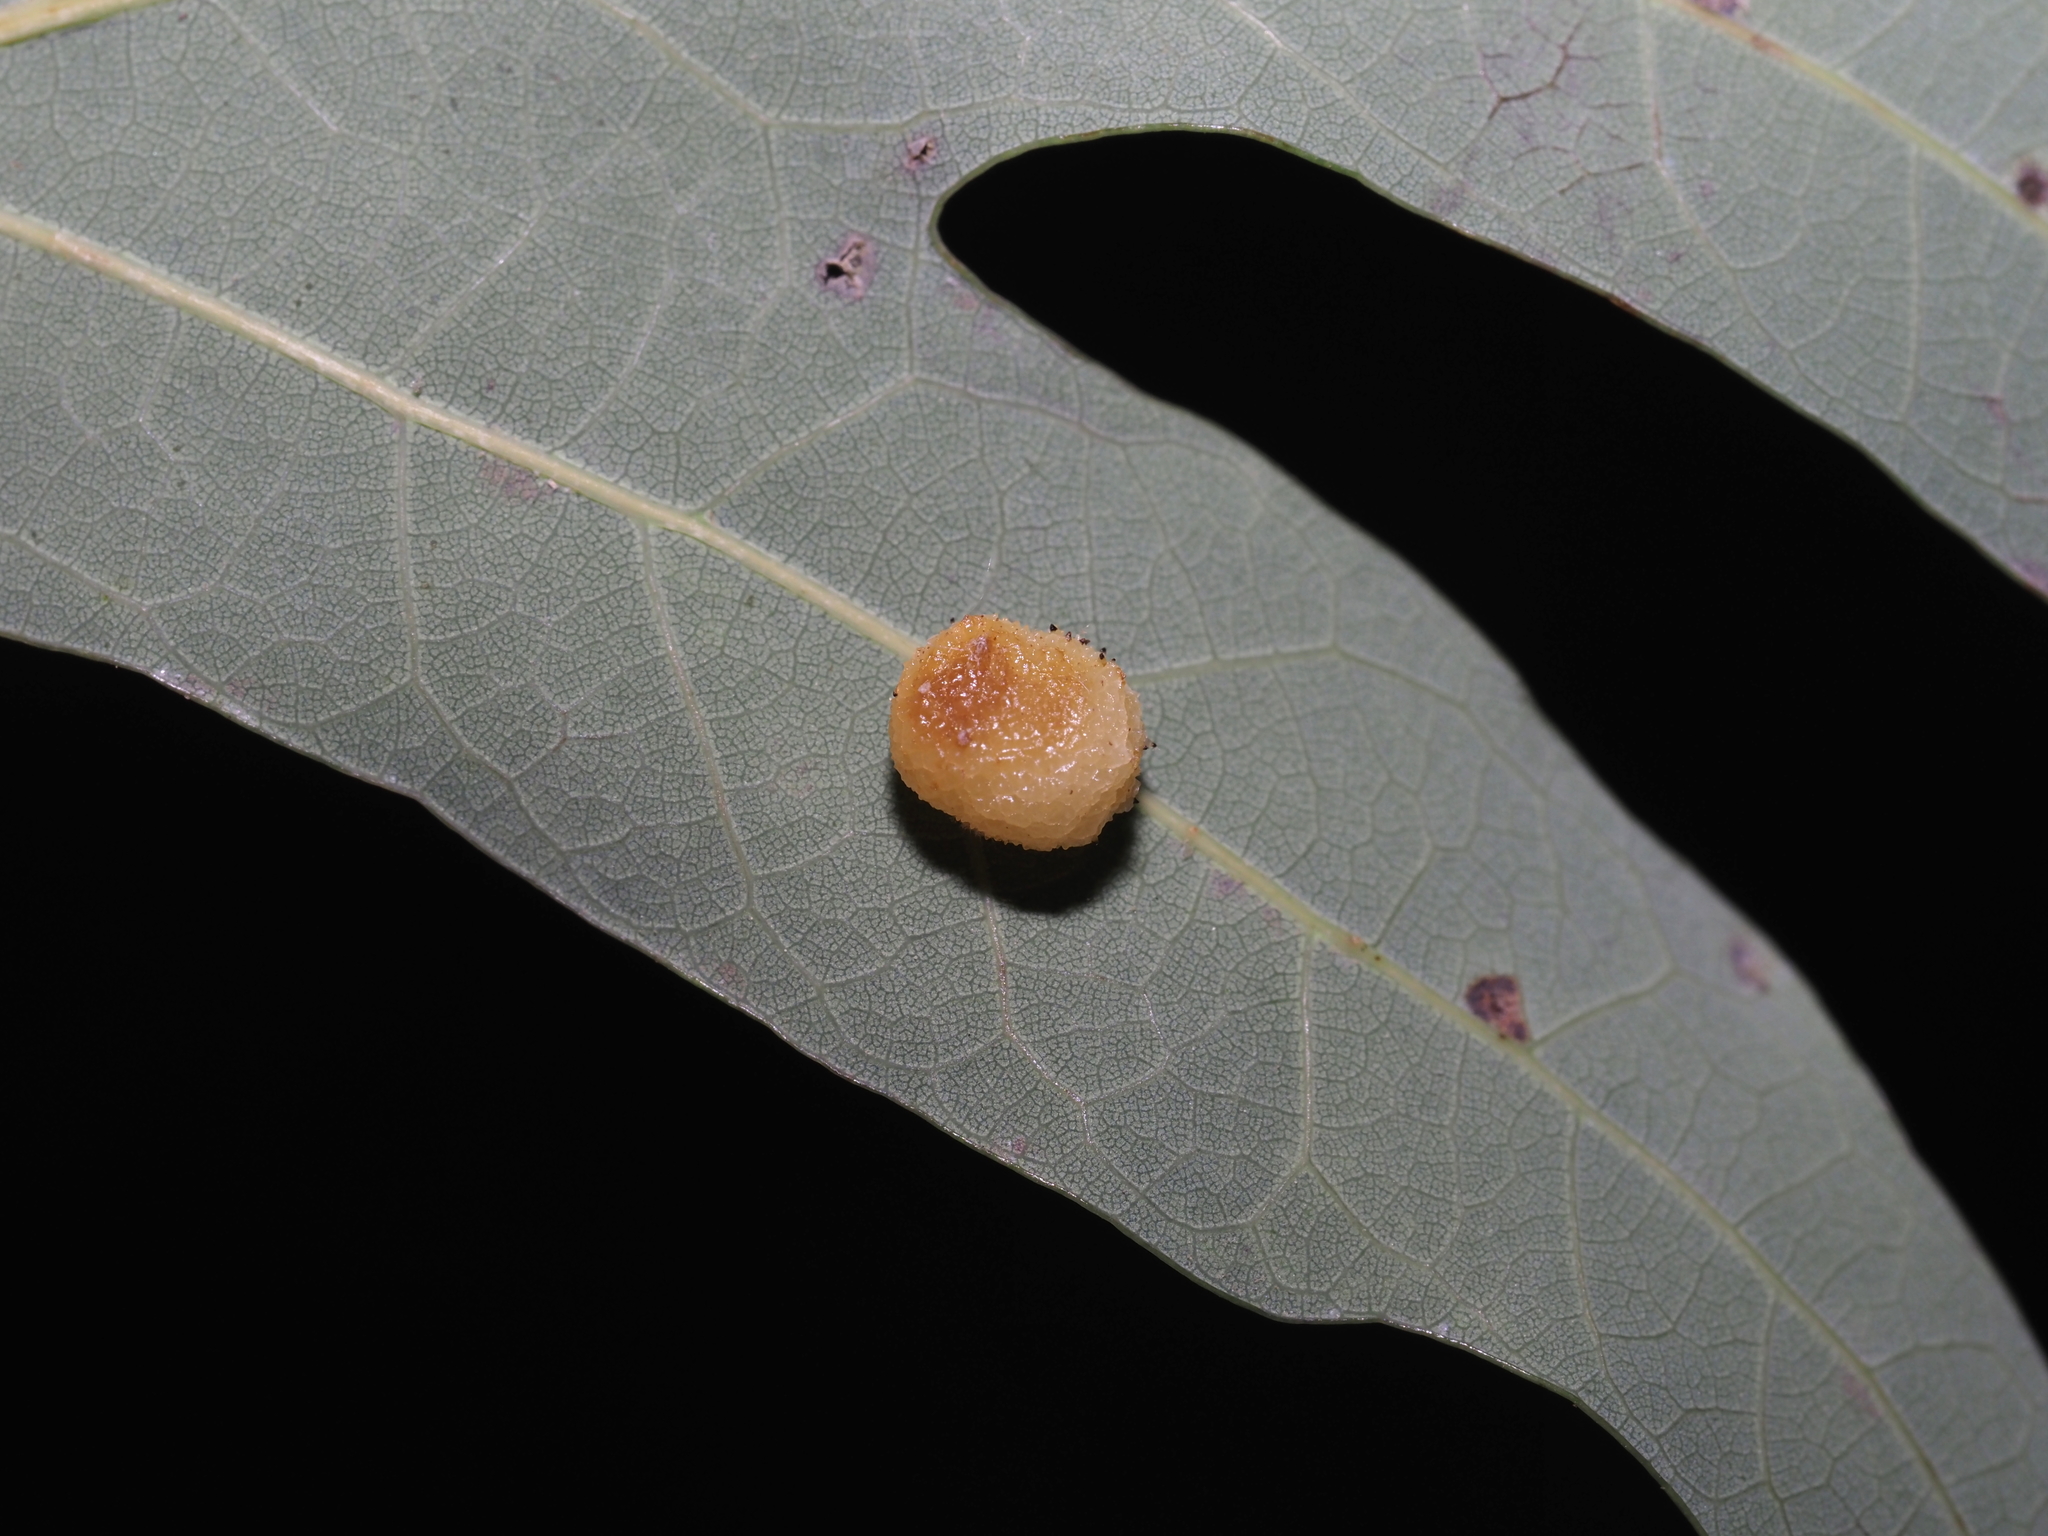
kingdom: Animalia
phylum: Arthropoda
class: Insecta
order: Hymenoptera
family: Cynipidae
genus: Acraspis
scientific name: Acraspis
